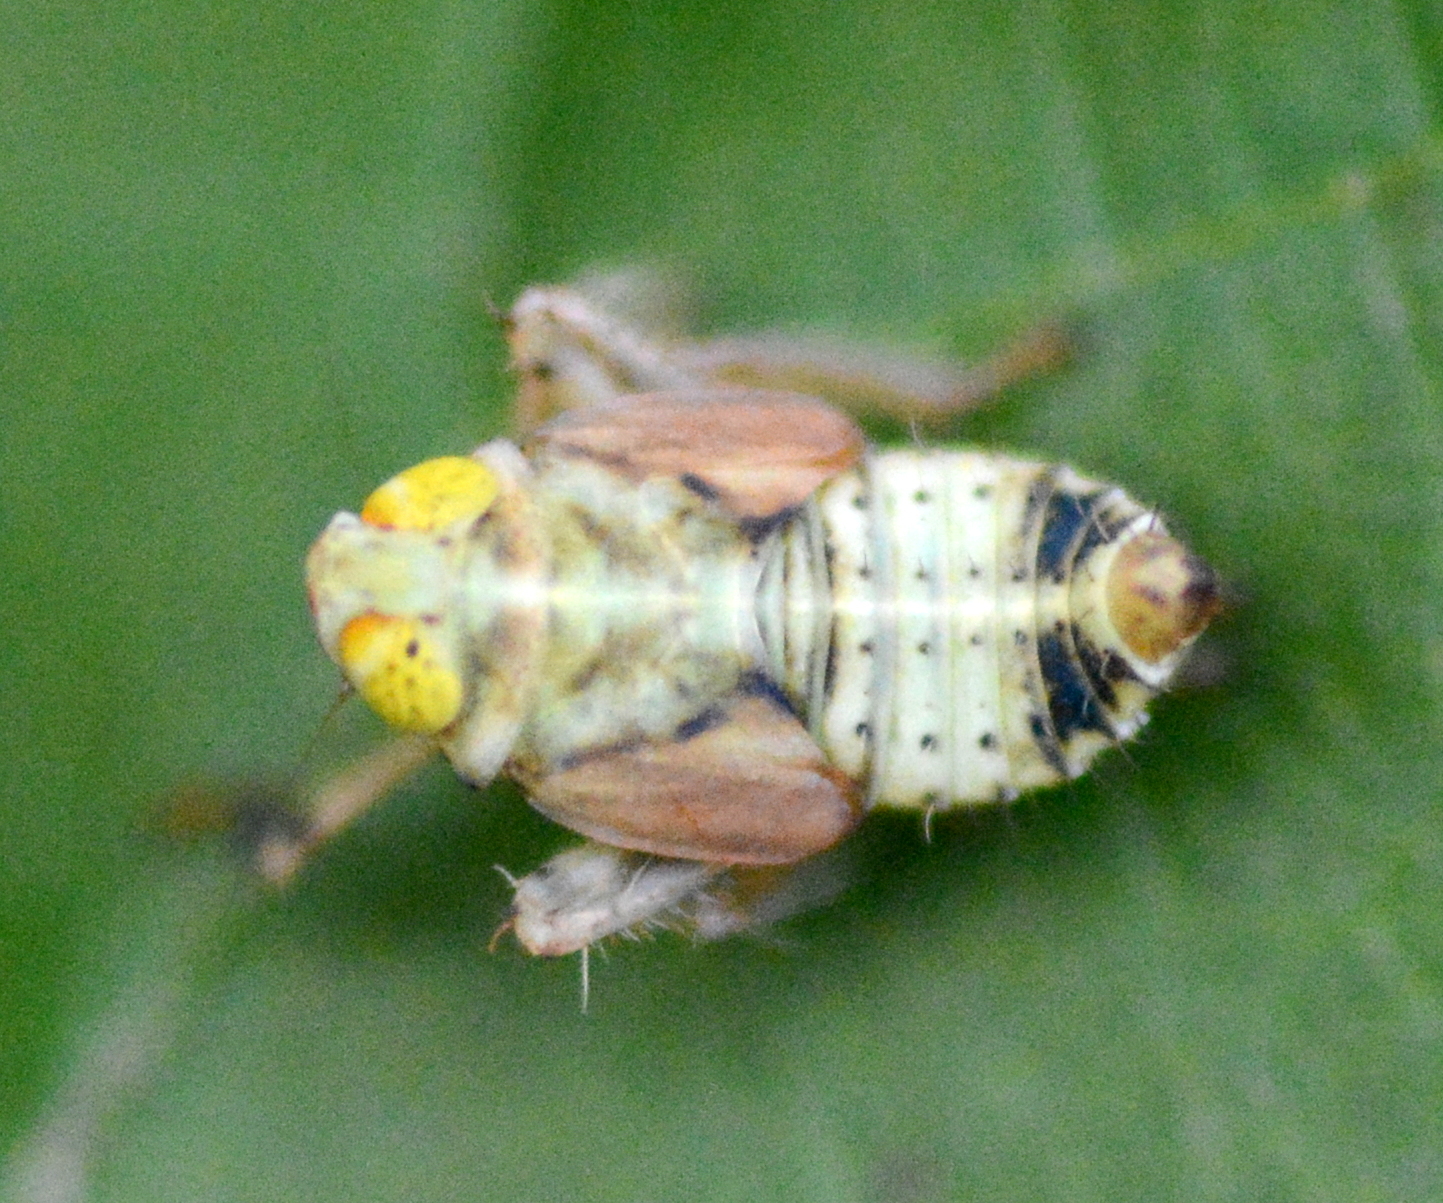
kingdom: Animalia
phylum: Arthropoda
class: Insecta
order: Hemiptera
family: Cicadellidae
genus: Jikradia
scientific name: Jikradia olitoria
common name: Coppery leafhopper
